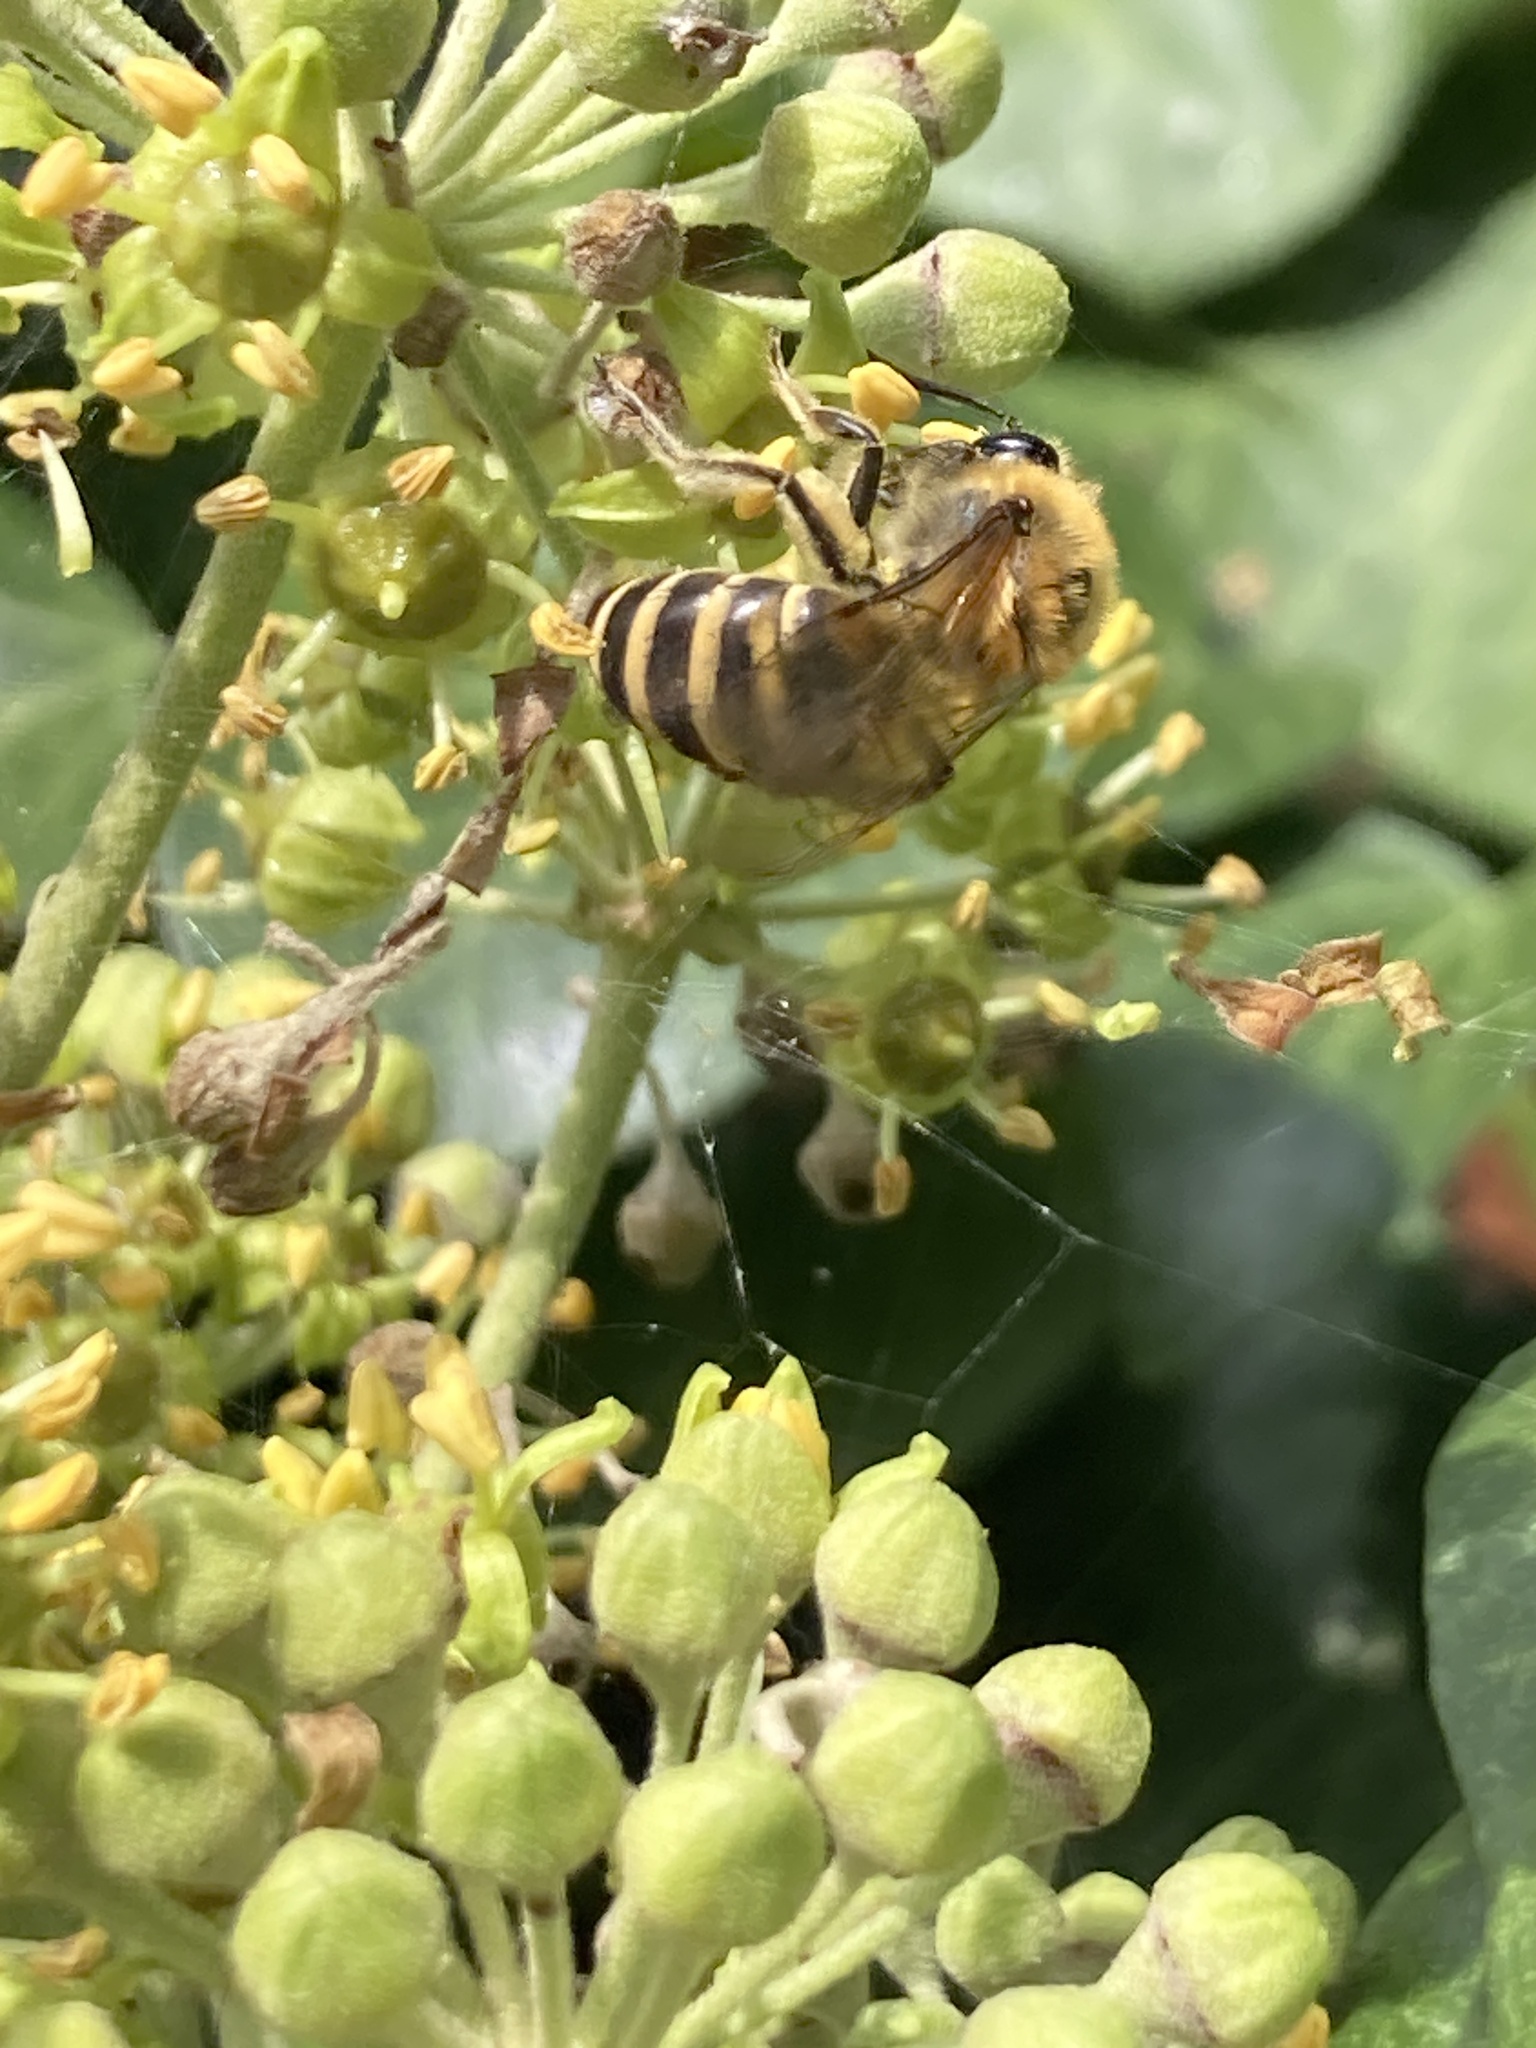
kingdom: Animalia
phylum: Arthropoda
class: Insecta
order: Hymenoptera
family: Colletidae
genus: Colletes
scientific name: Colletes hederae
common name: Ivy bee
